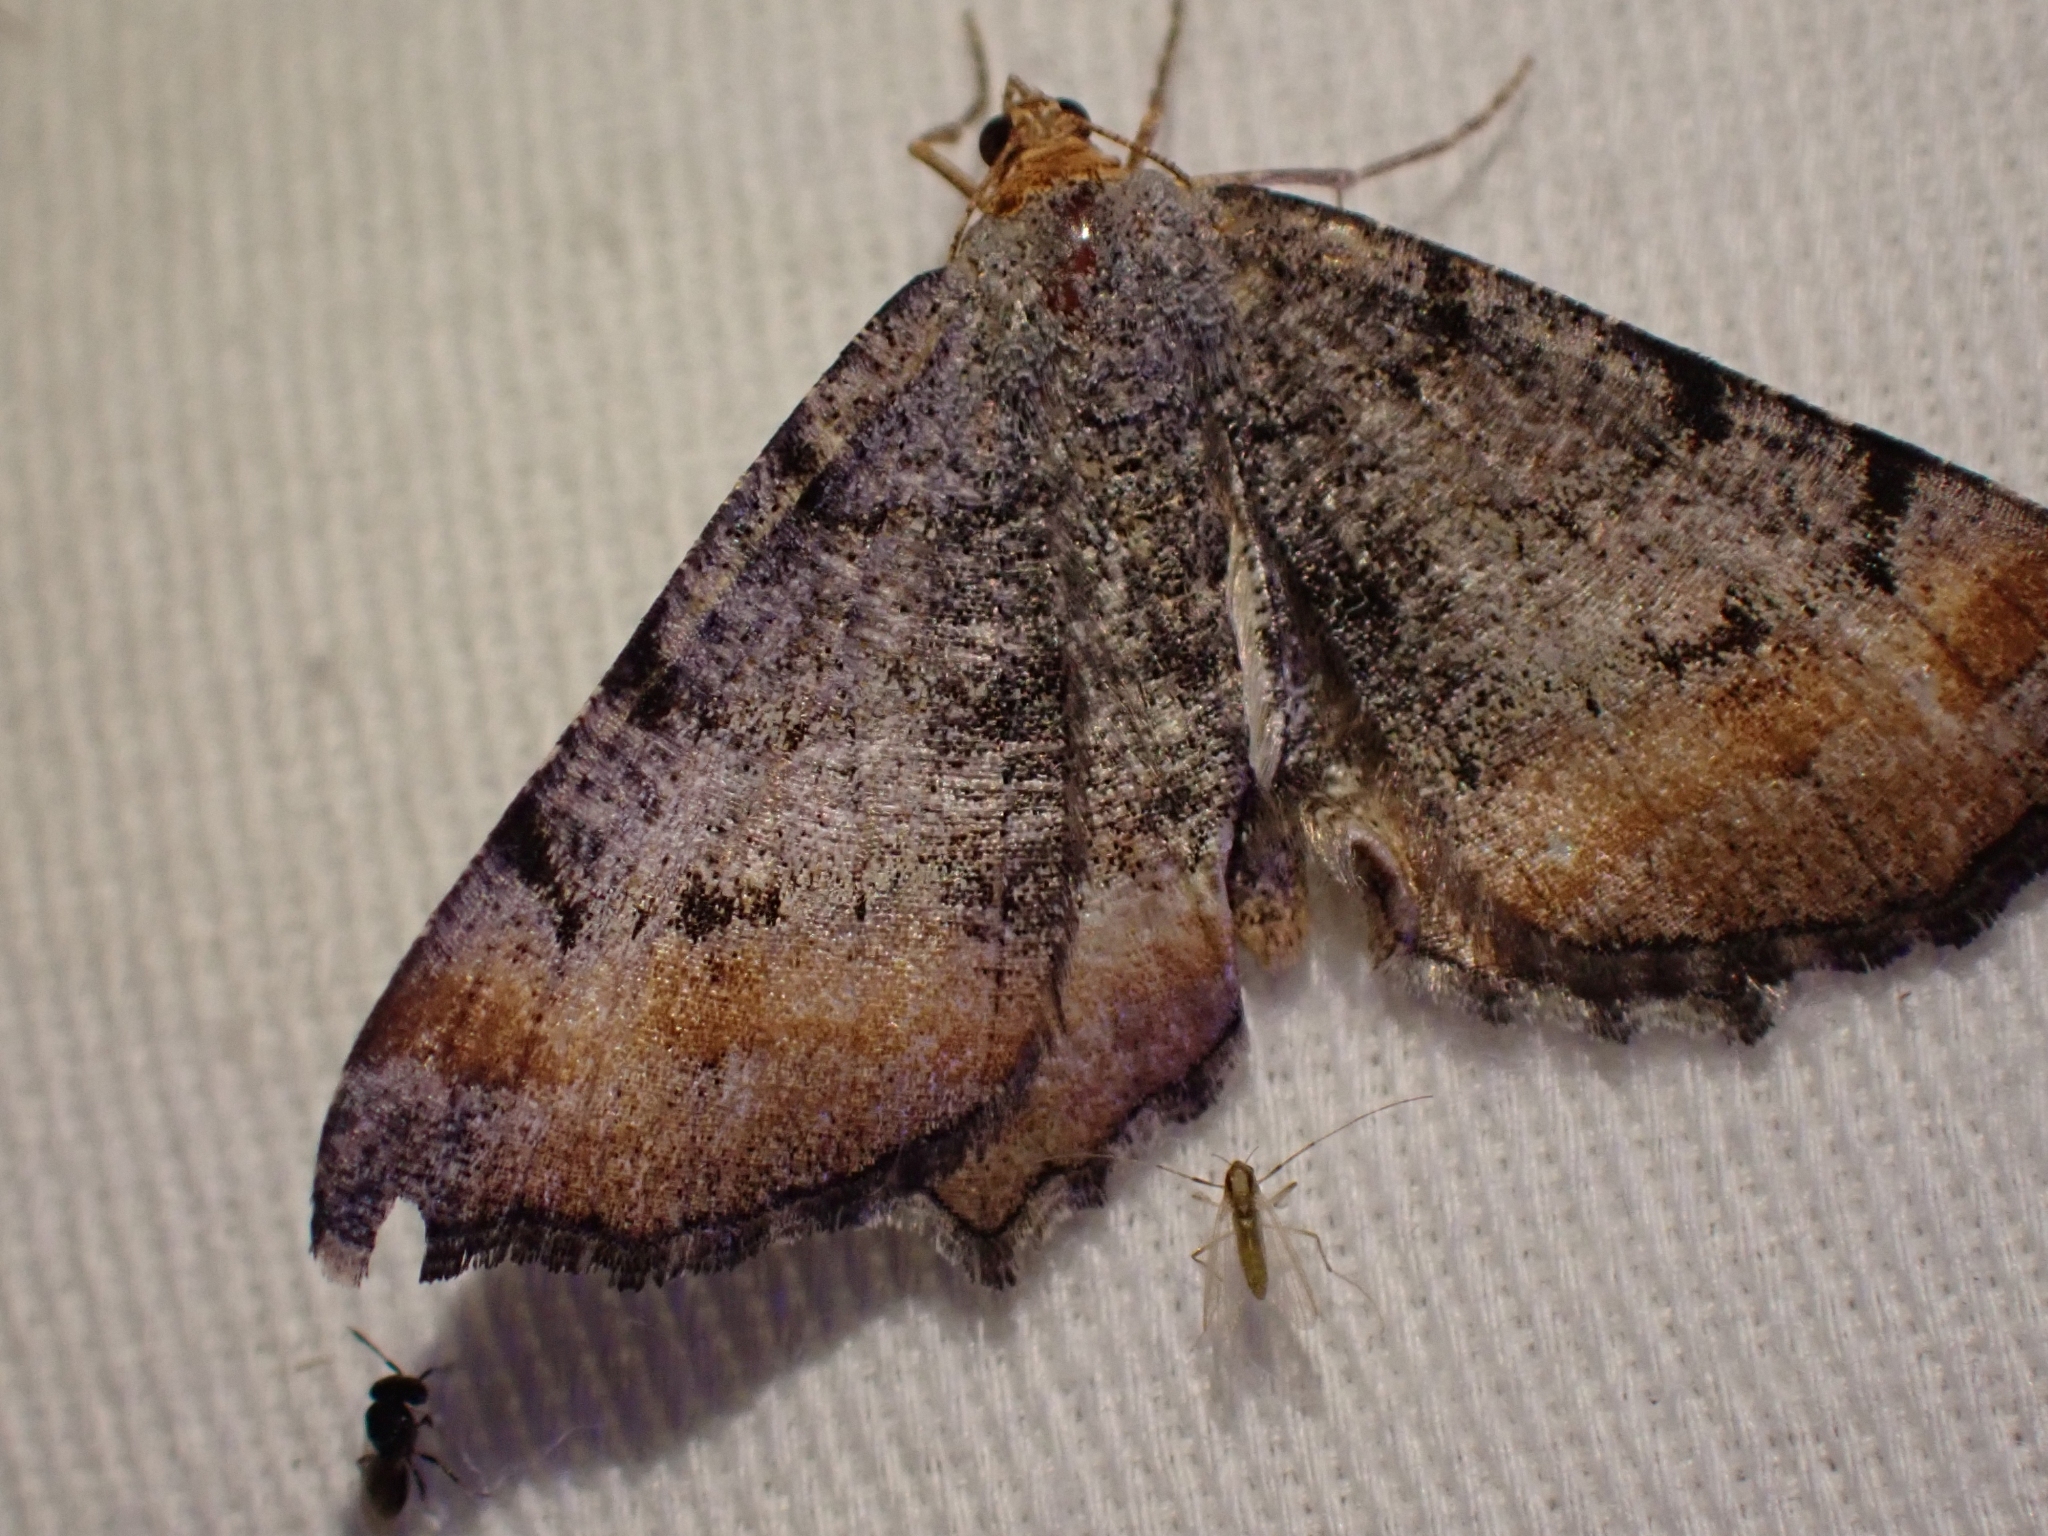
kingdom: Animalia
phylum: Arthropoda
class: Insecta
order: Lepidoptera
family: Geometridae
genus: Macaria
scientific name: Macaria adonis
